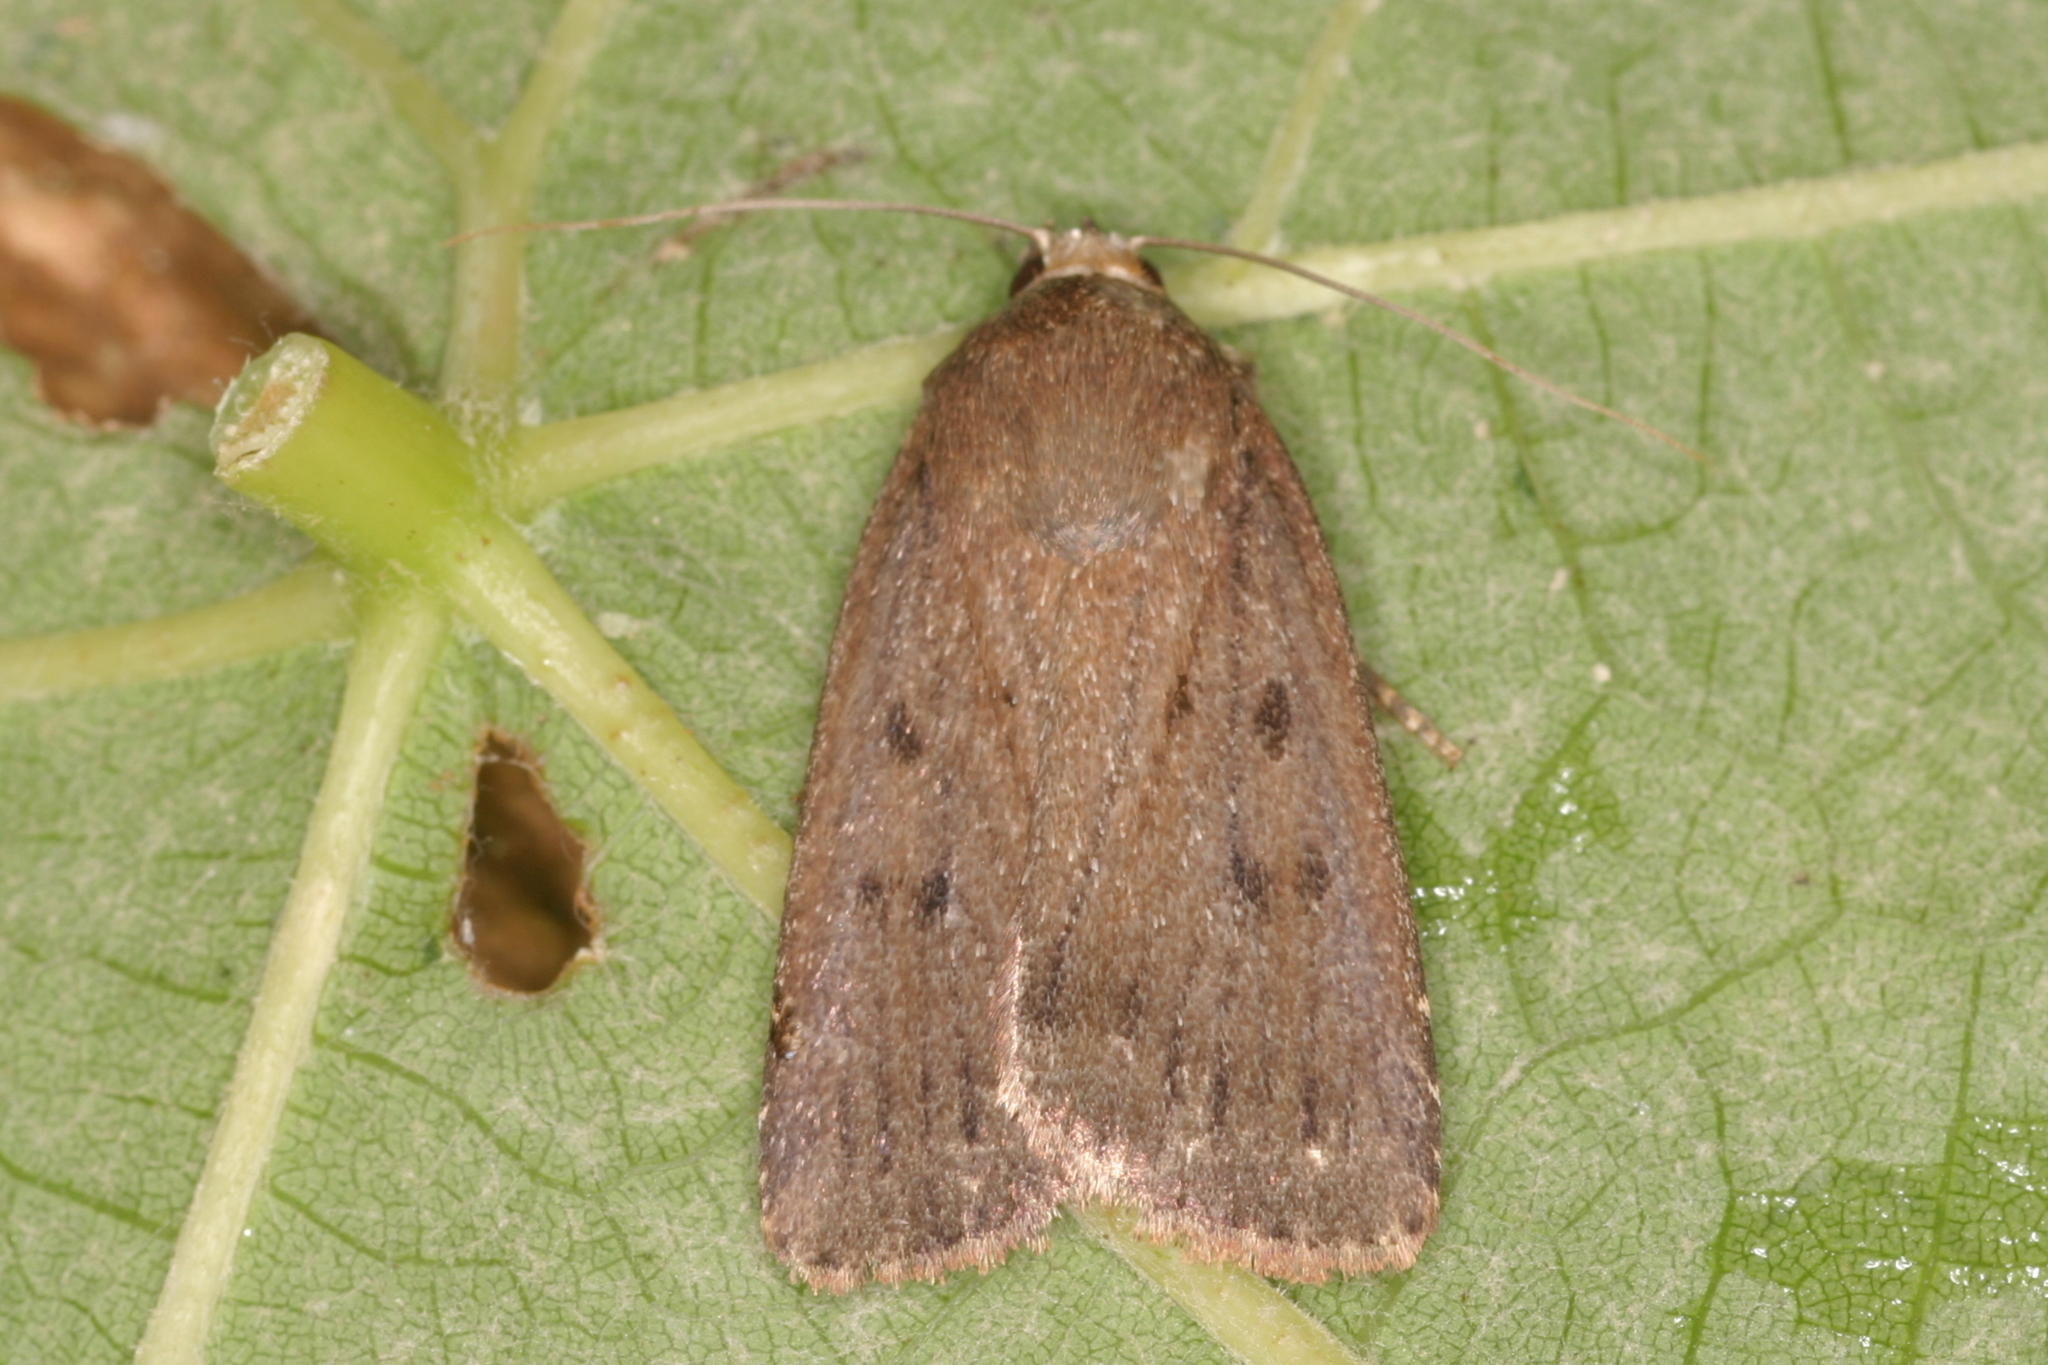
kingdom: Animalia
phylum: Arthropoda
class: Insecta
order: Lepidoptera
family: Noctuidae
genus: Amphipyra
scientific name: Amphipyra tragopoginis
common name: Mouse moth
